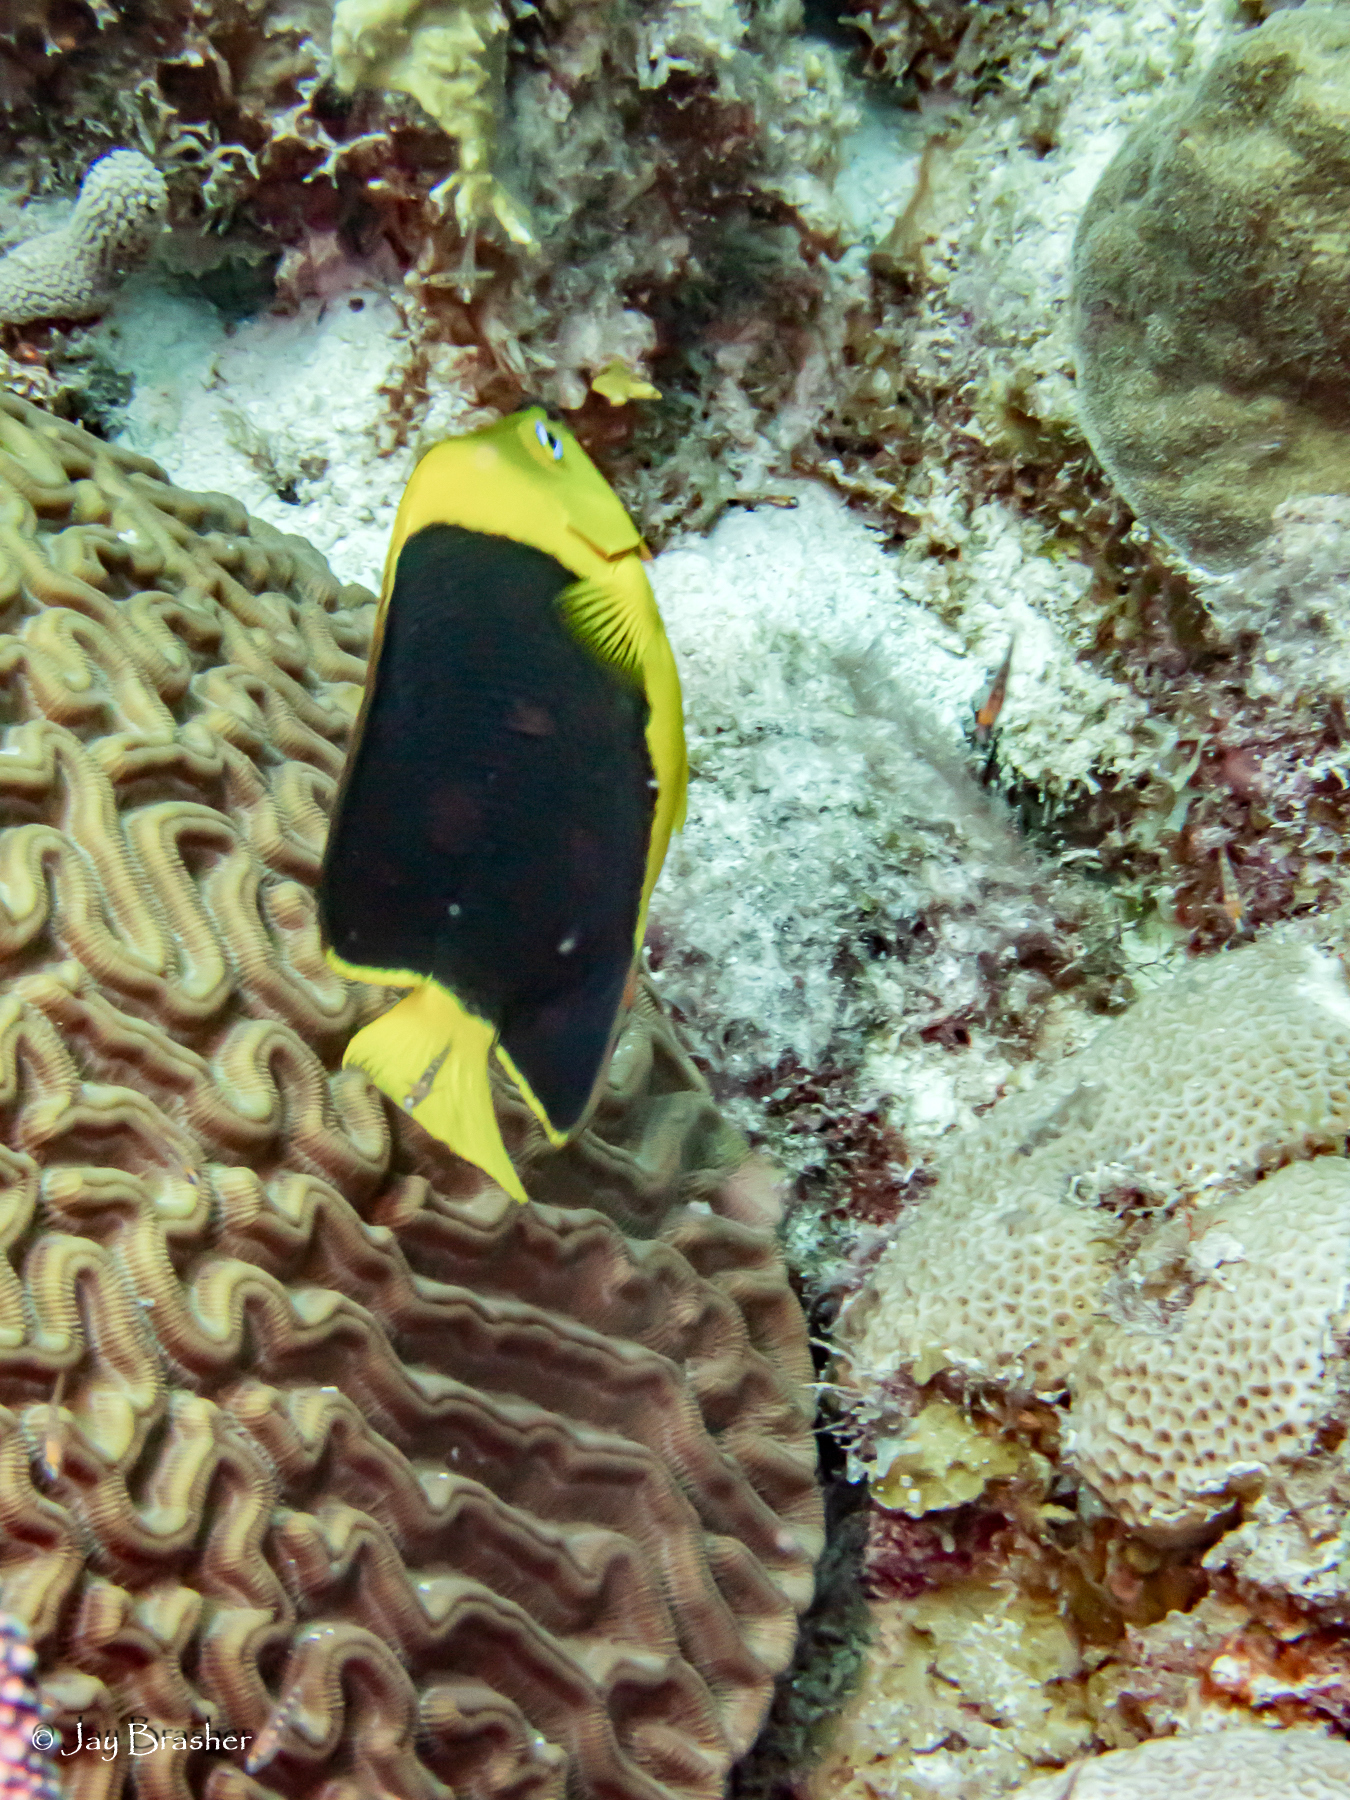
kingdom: Animalia
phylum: Cnidaria
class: Anthozoa
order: Scleractinia
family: Poritidae
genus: Porites
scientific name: Porites astreoides
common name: Mustard hill coral
